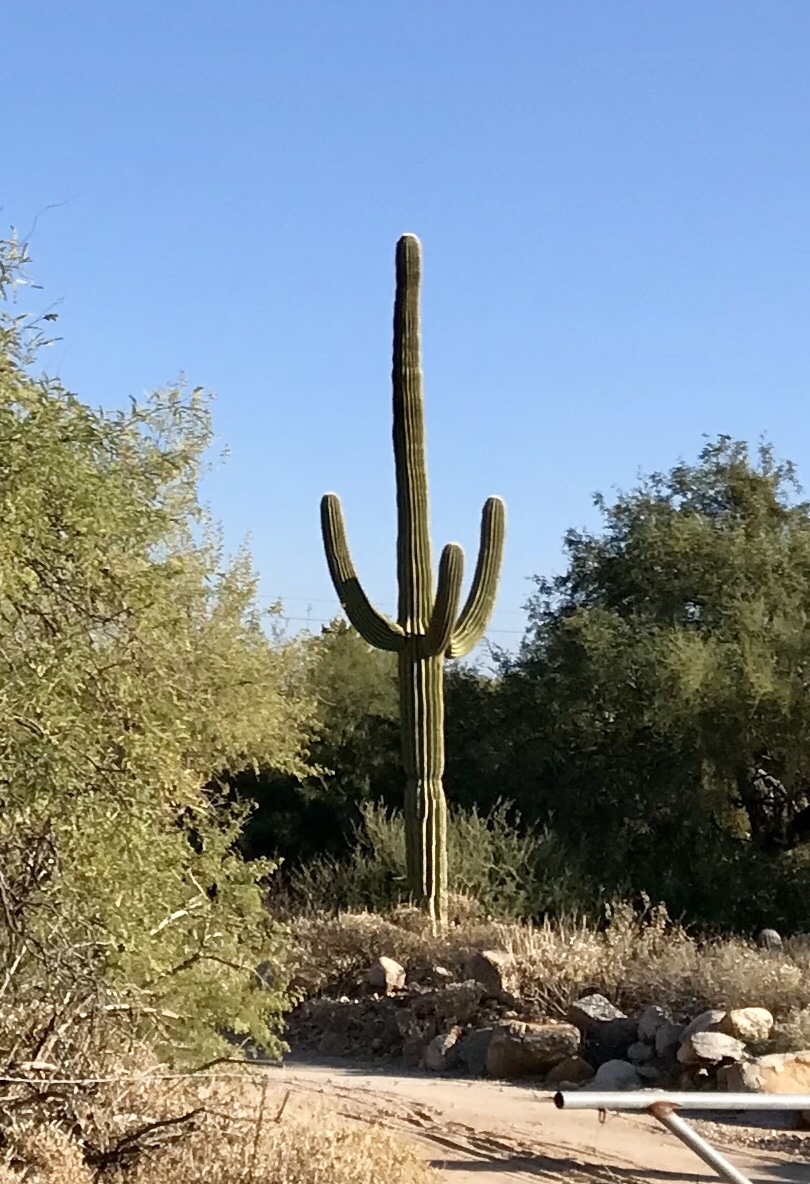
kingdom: Plantae
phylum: Tracheophyta
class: Magnoliopsida
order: Caryophyllales
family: Cactaceae
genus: Carnegiea
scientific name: Carnegiea gigantea
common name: Saguaro
